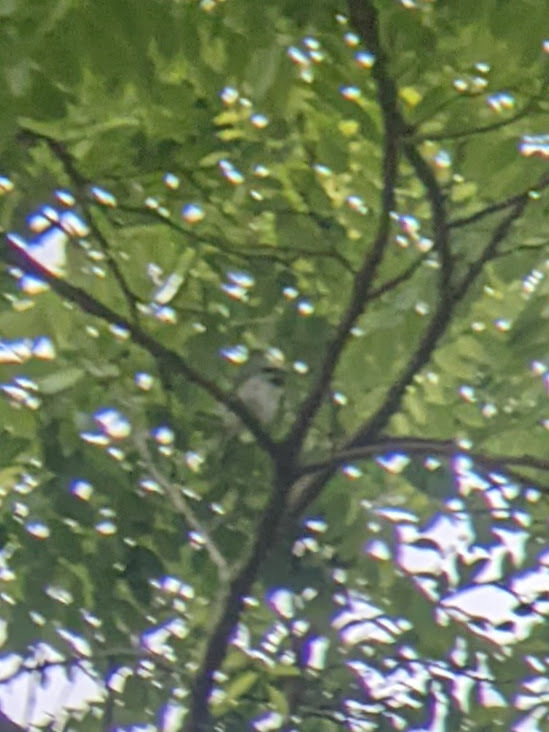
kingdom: Animalia
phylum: Chordata
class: Aves
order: Passeriformes
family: Parulidae
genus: Vermivora
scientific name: Vermivora chrysoptera
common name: Golden-winged warbler
